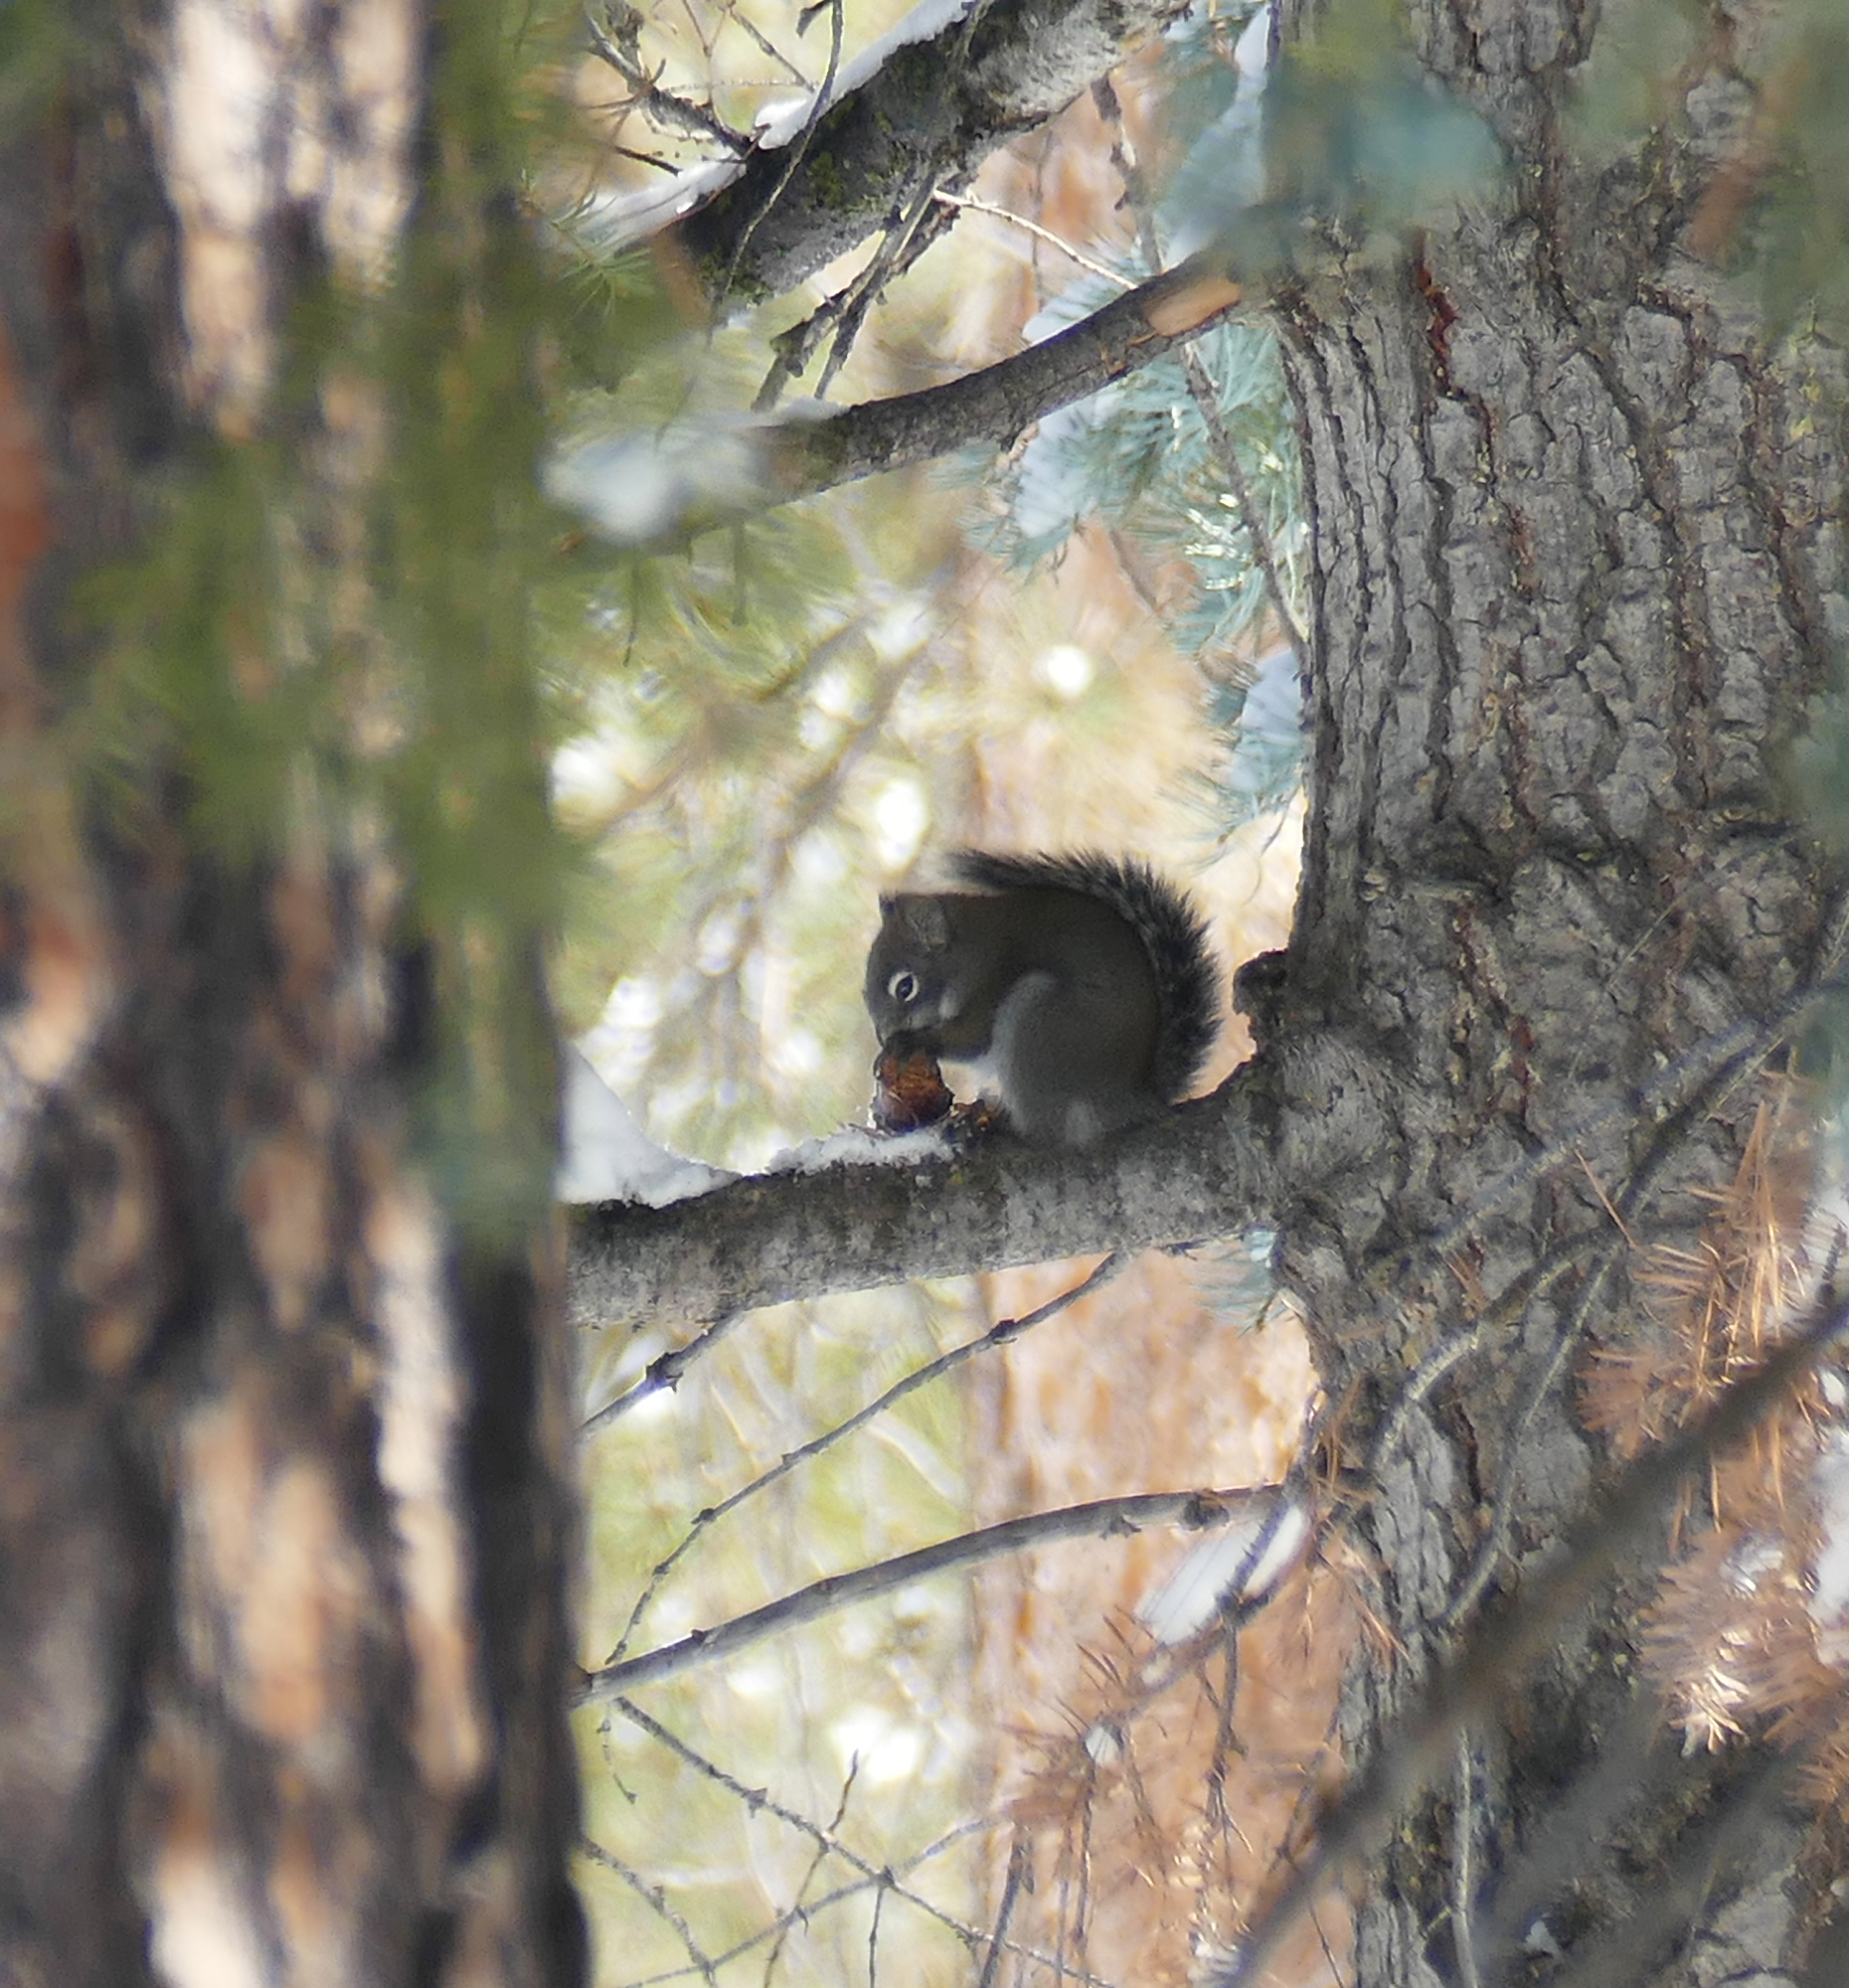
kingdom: Animalia
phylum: Chordata
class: Mammalia
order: Rodentia
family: Sciuridae
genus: Tamiasciurus
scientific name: Tamiasciurus hudsonicus
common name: Red squirrel
